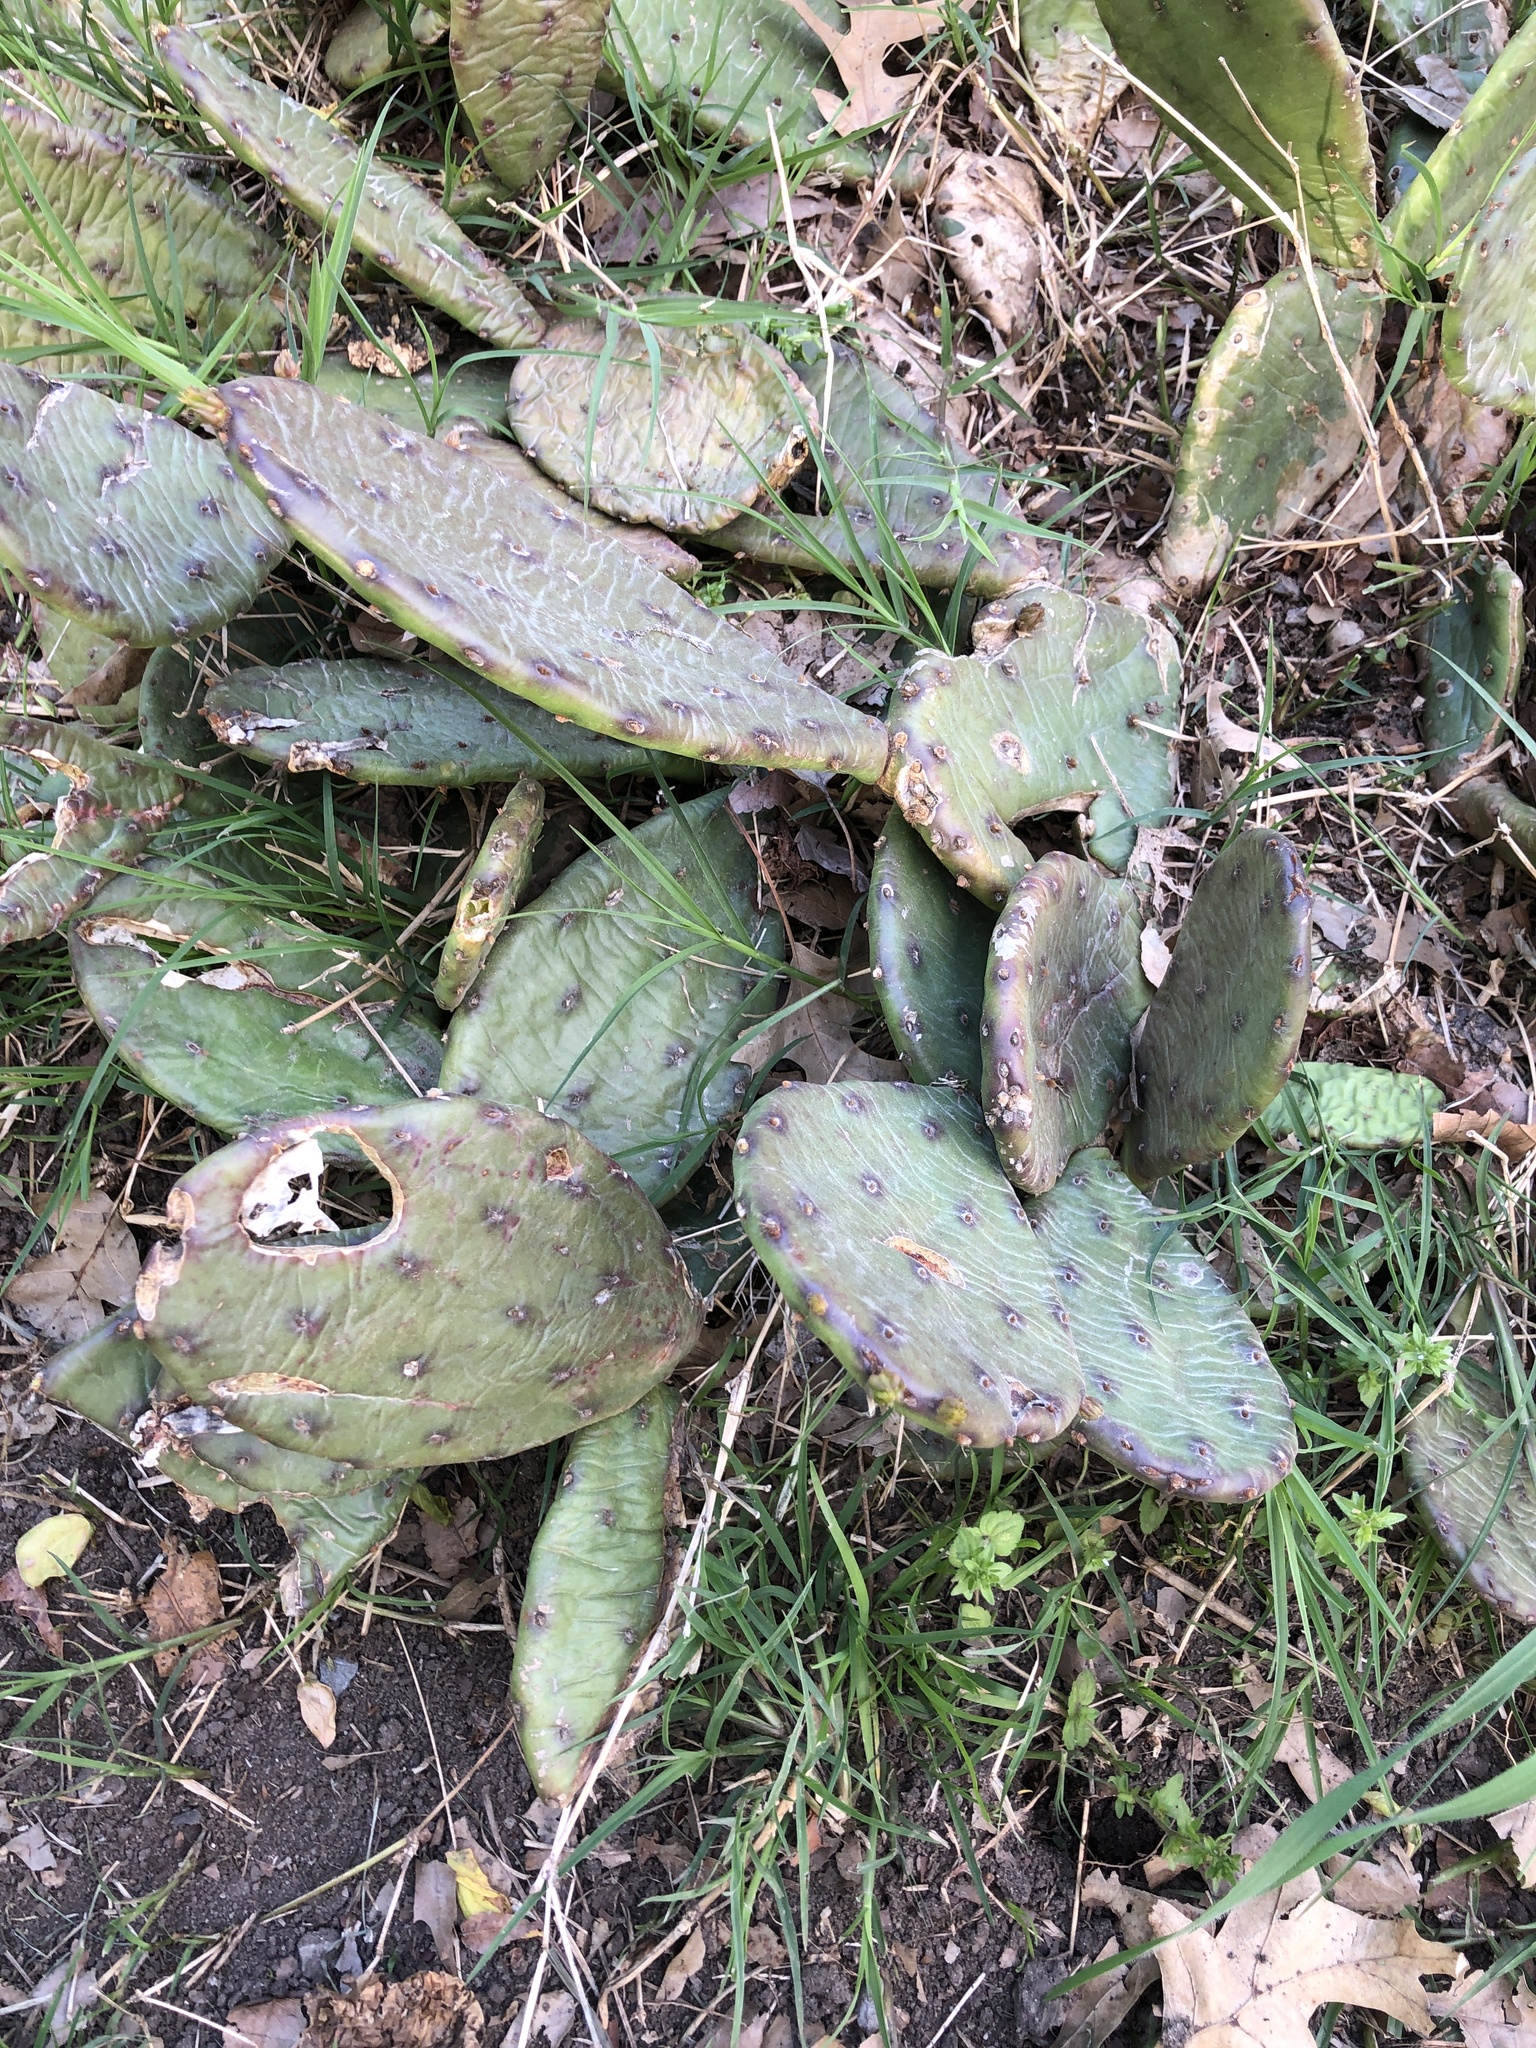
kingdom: Plantae
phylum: Tracheophyta
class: Magnoliopsida
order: Caryophyllales
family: Cactaceae
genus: Opuntia
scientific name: Opuntia humifusa
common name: Eastern prickly-pear
